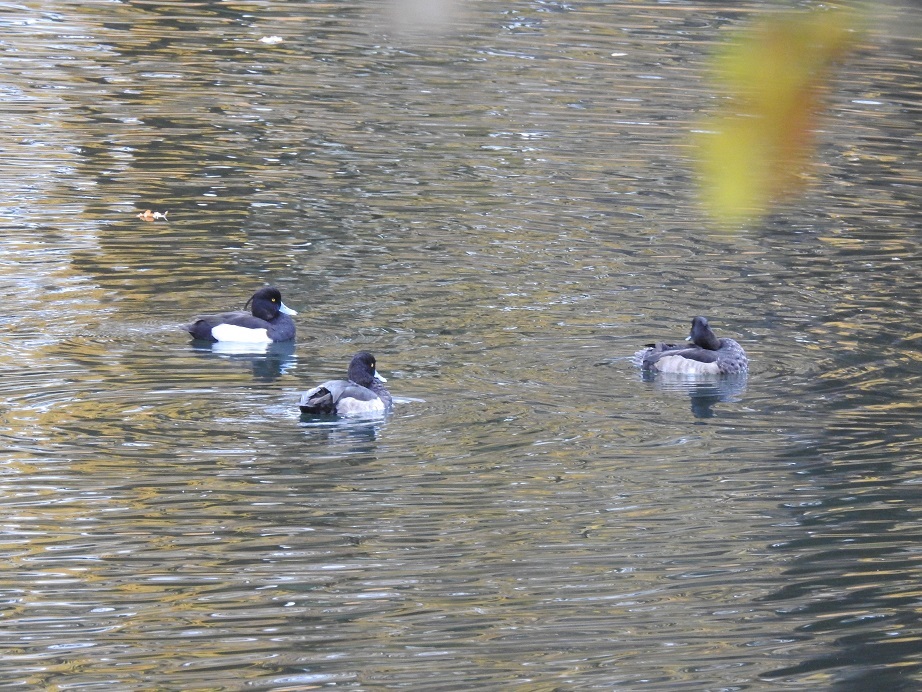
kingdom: Animalia
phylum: Chordata
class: Aves
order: Anseriformes
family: Anatidae
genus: Aythya
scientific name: Aythya fuligula
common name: Tufted duck
